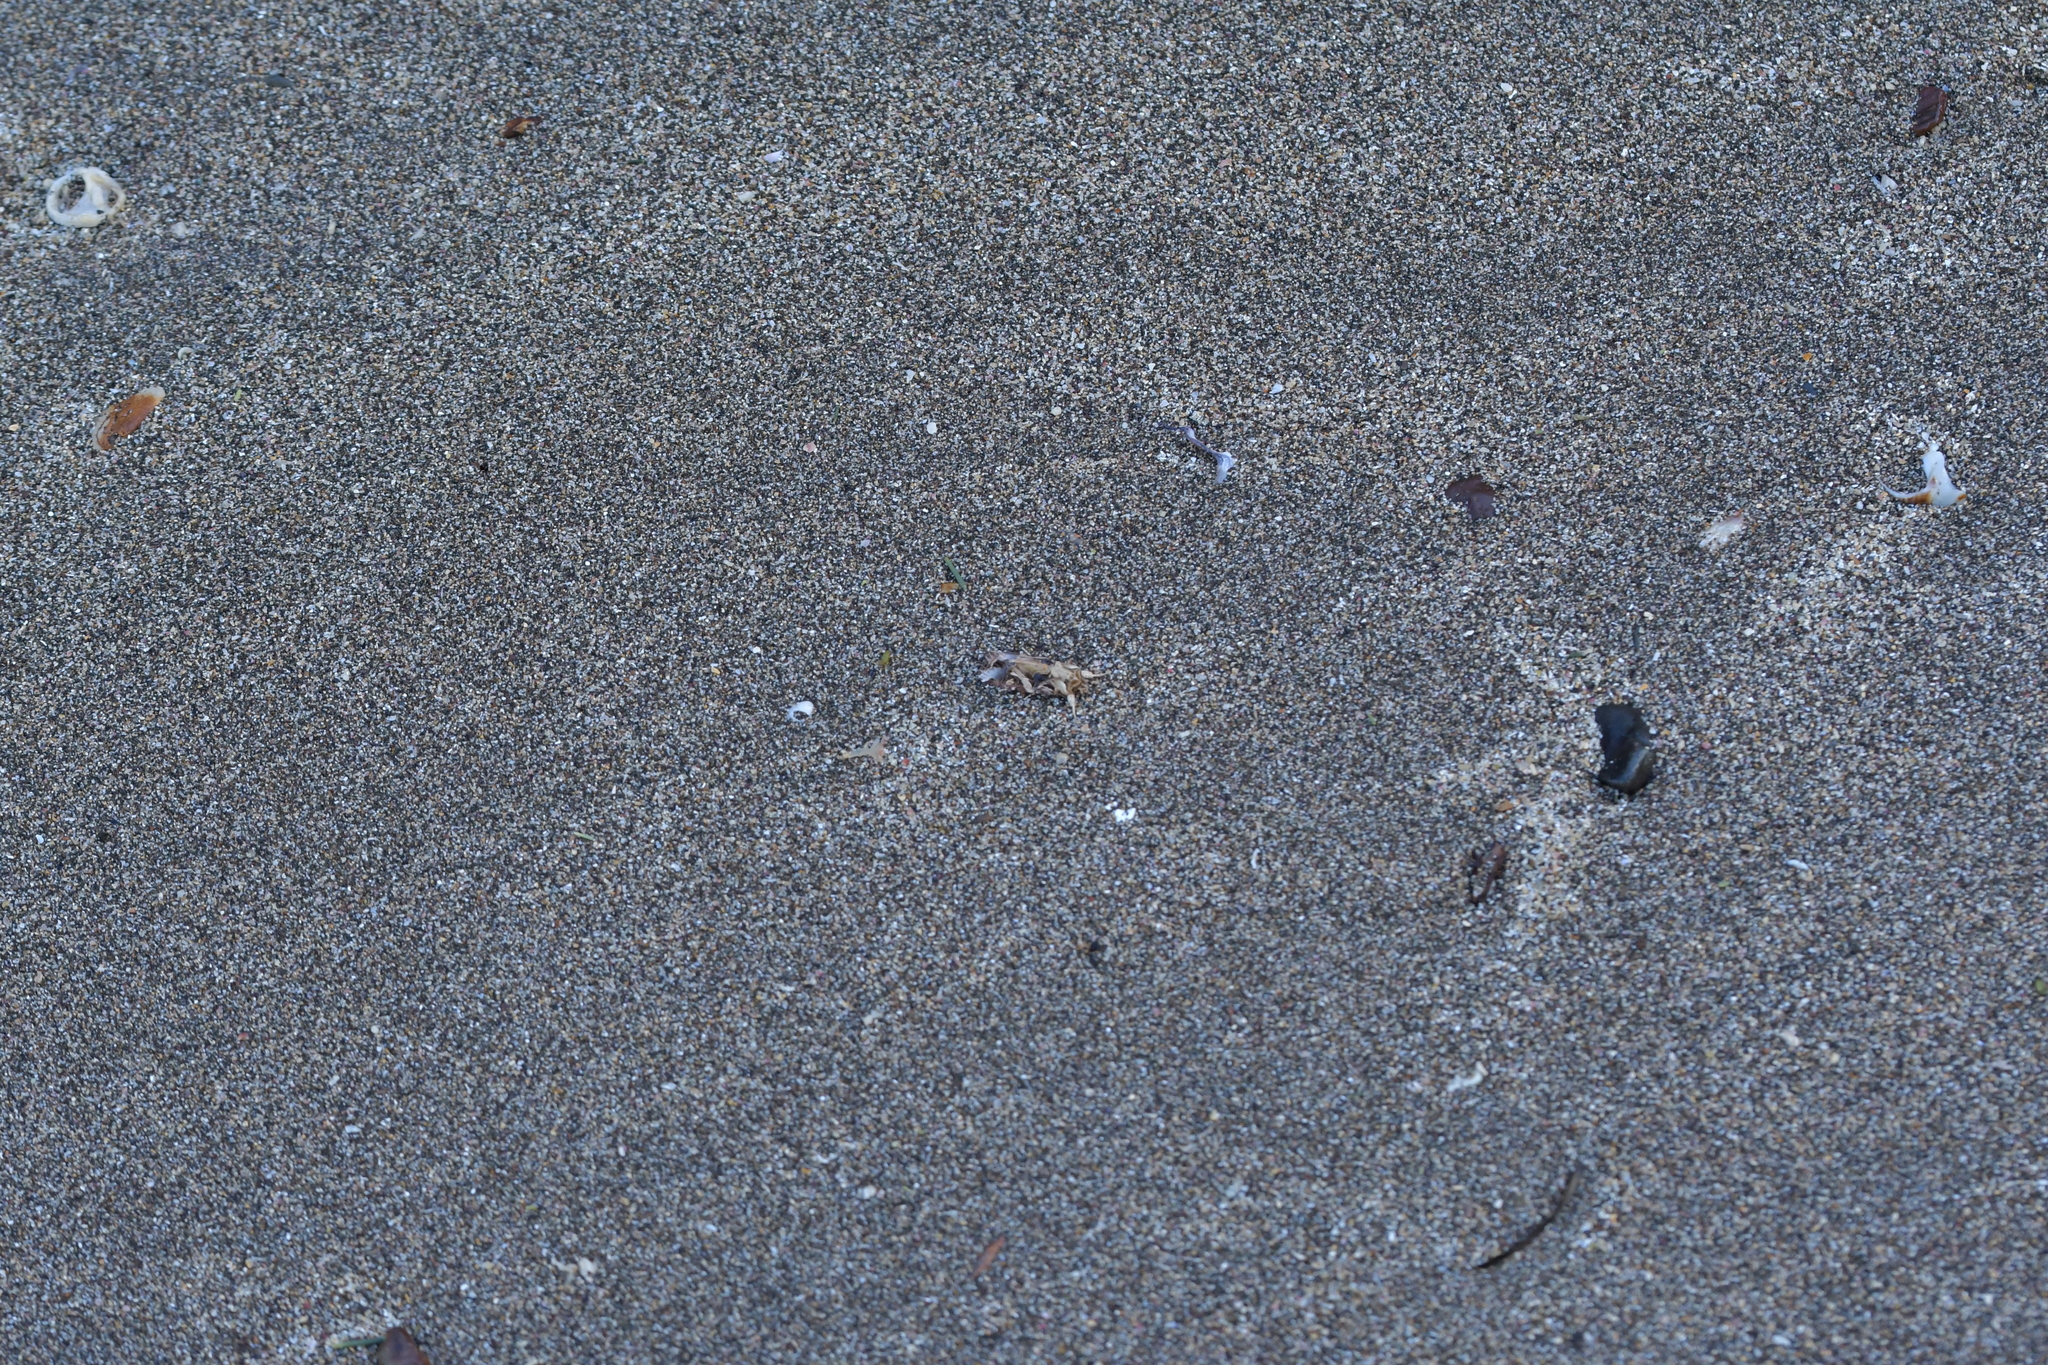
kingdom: Animalia
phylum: Arthropoda
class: Insecta
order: Lepidoptera
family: Noctuidae
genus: Spodoptera
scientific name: Spodoptera litura
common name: Asian cotton leafworm
